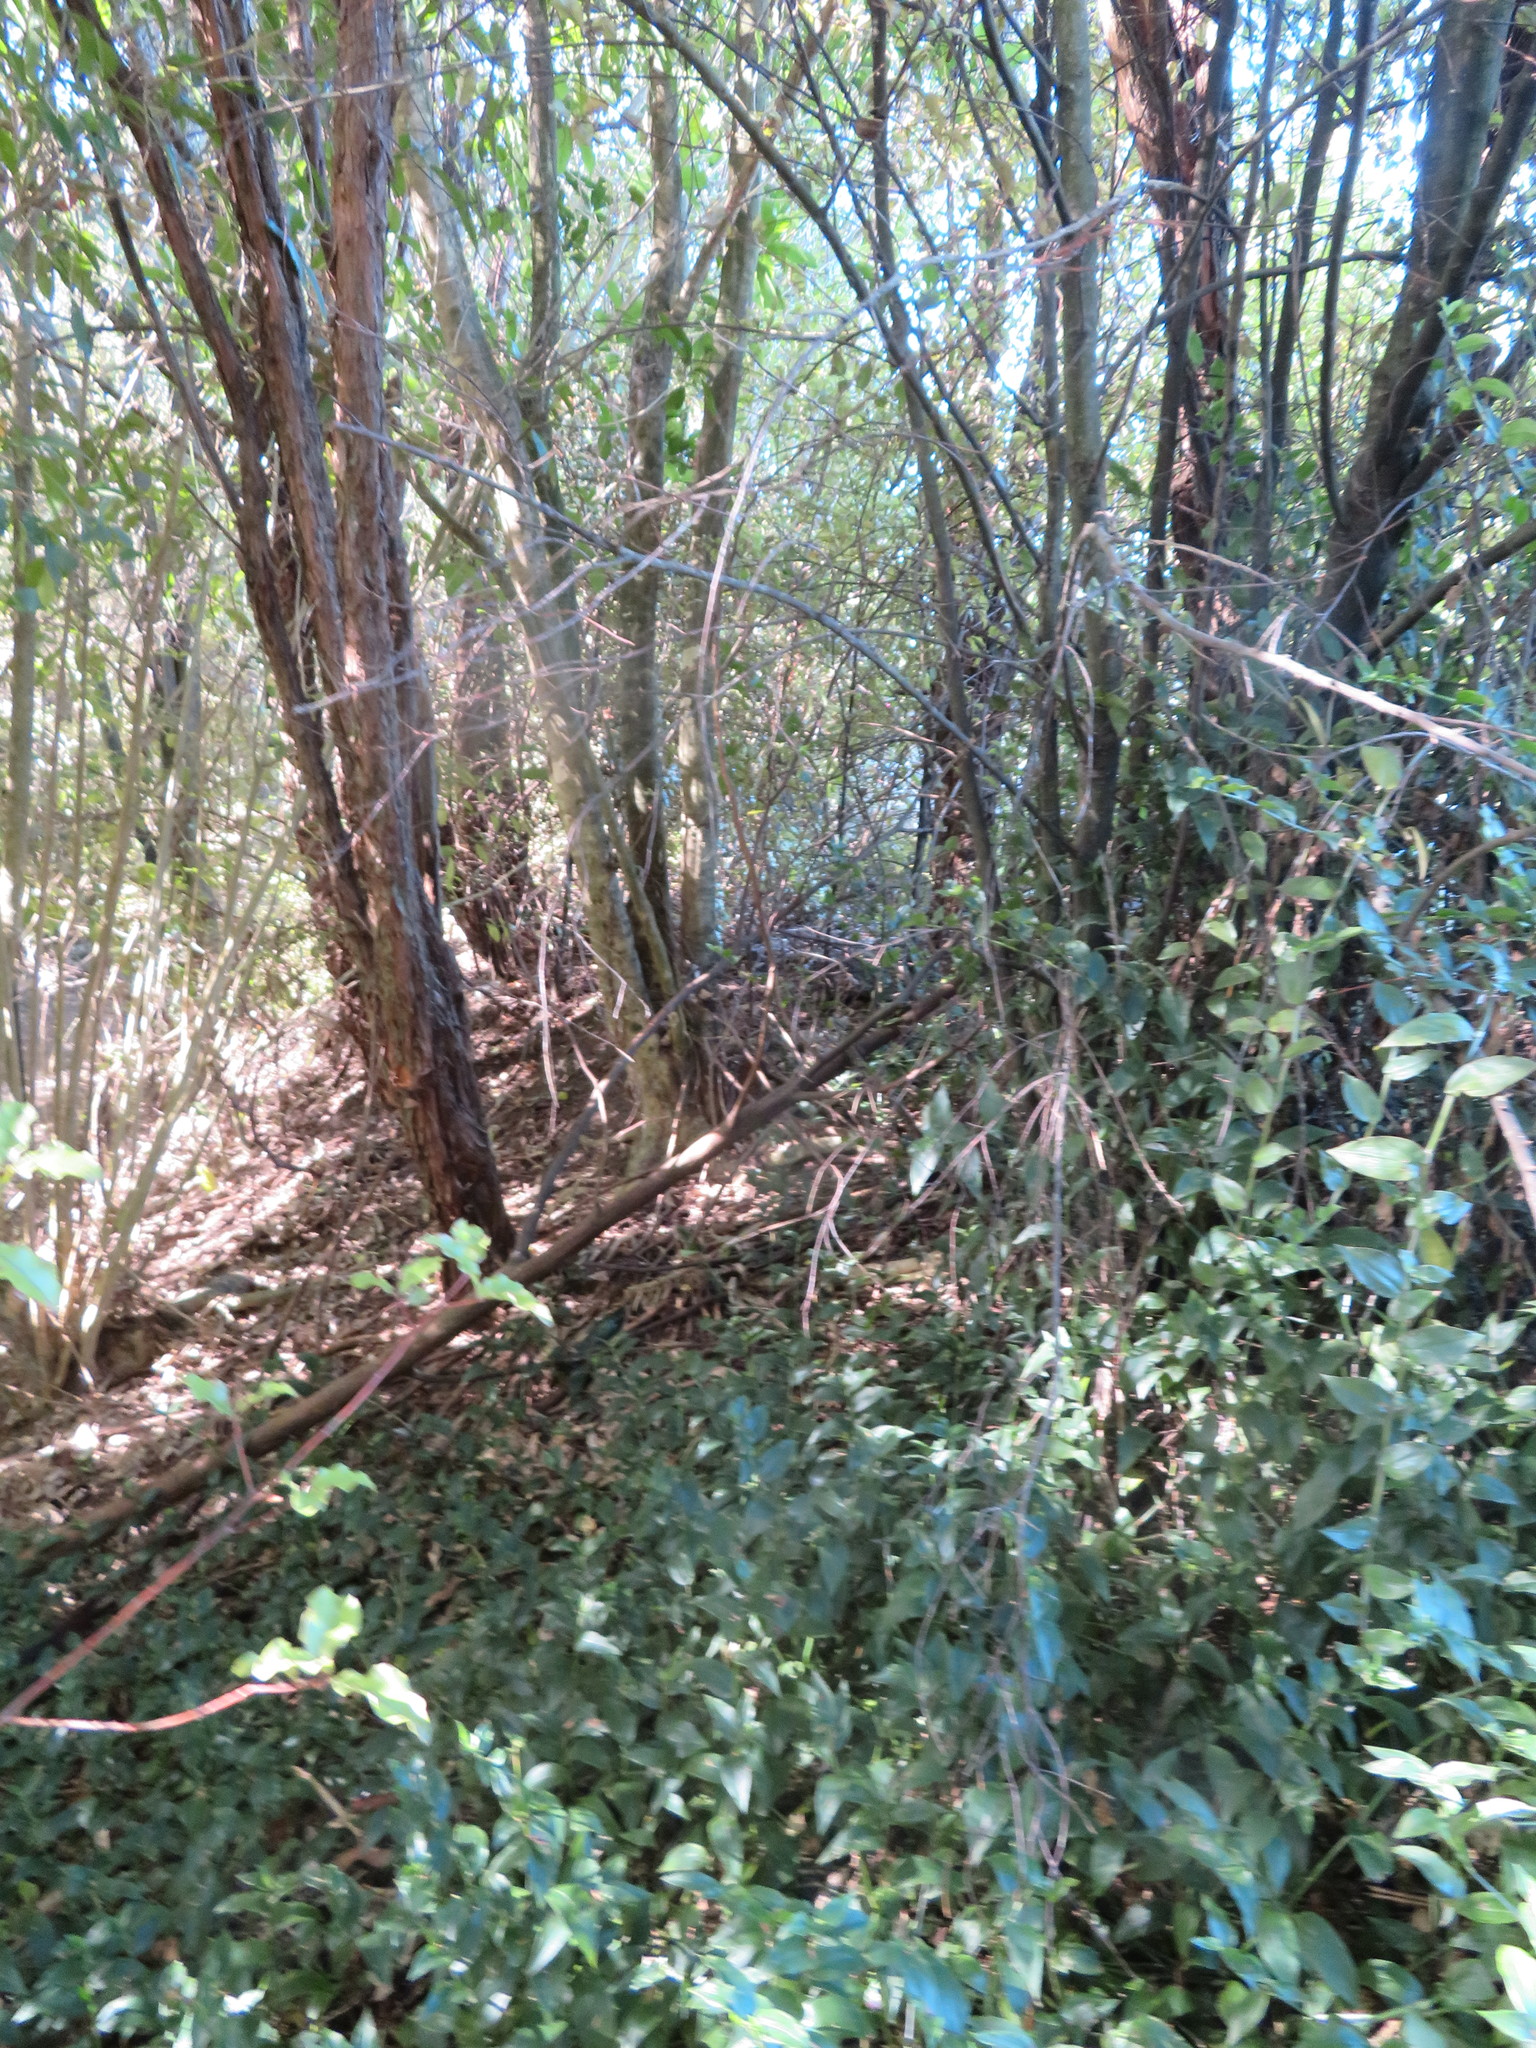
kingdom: Plantae
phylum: Tracheophyta
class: Magnoliopsida
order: Ericales
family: Primulaceae
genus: Myrsine
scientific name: Myrsine australis
